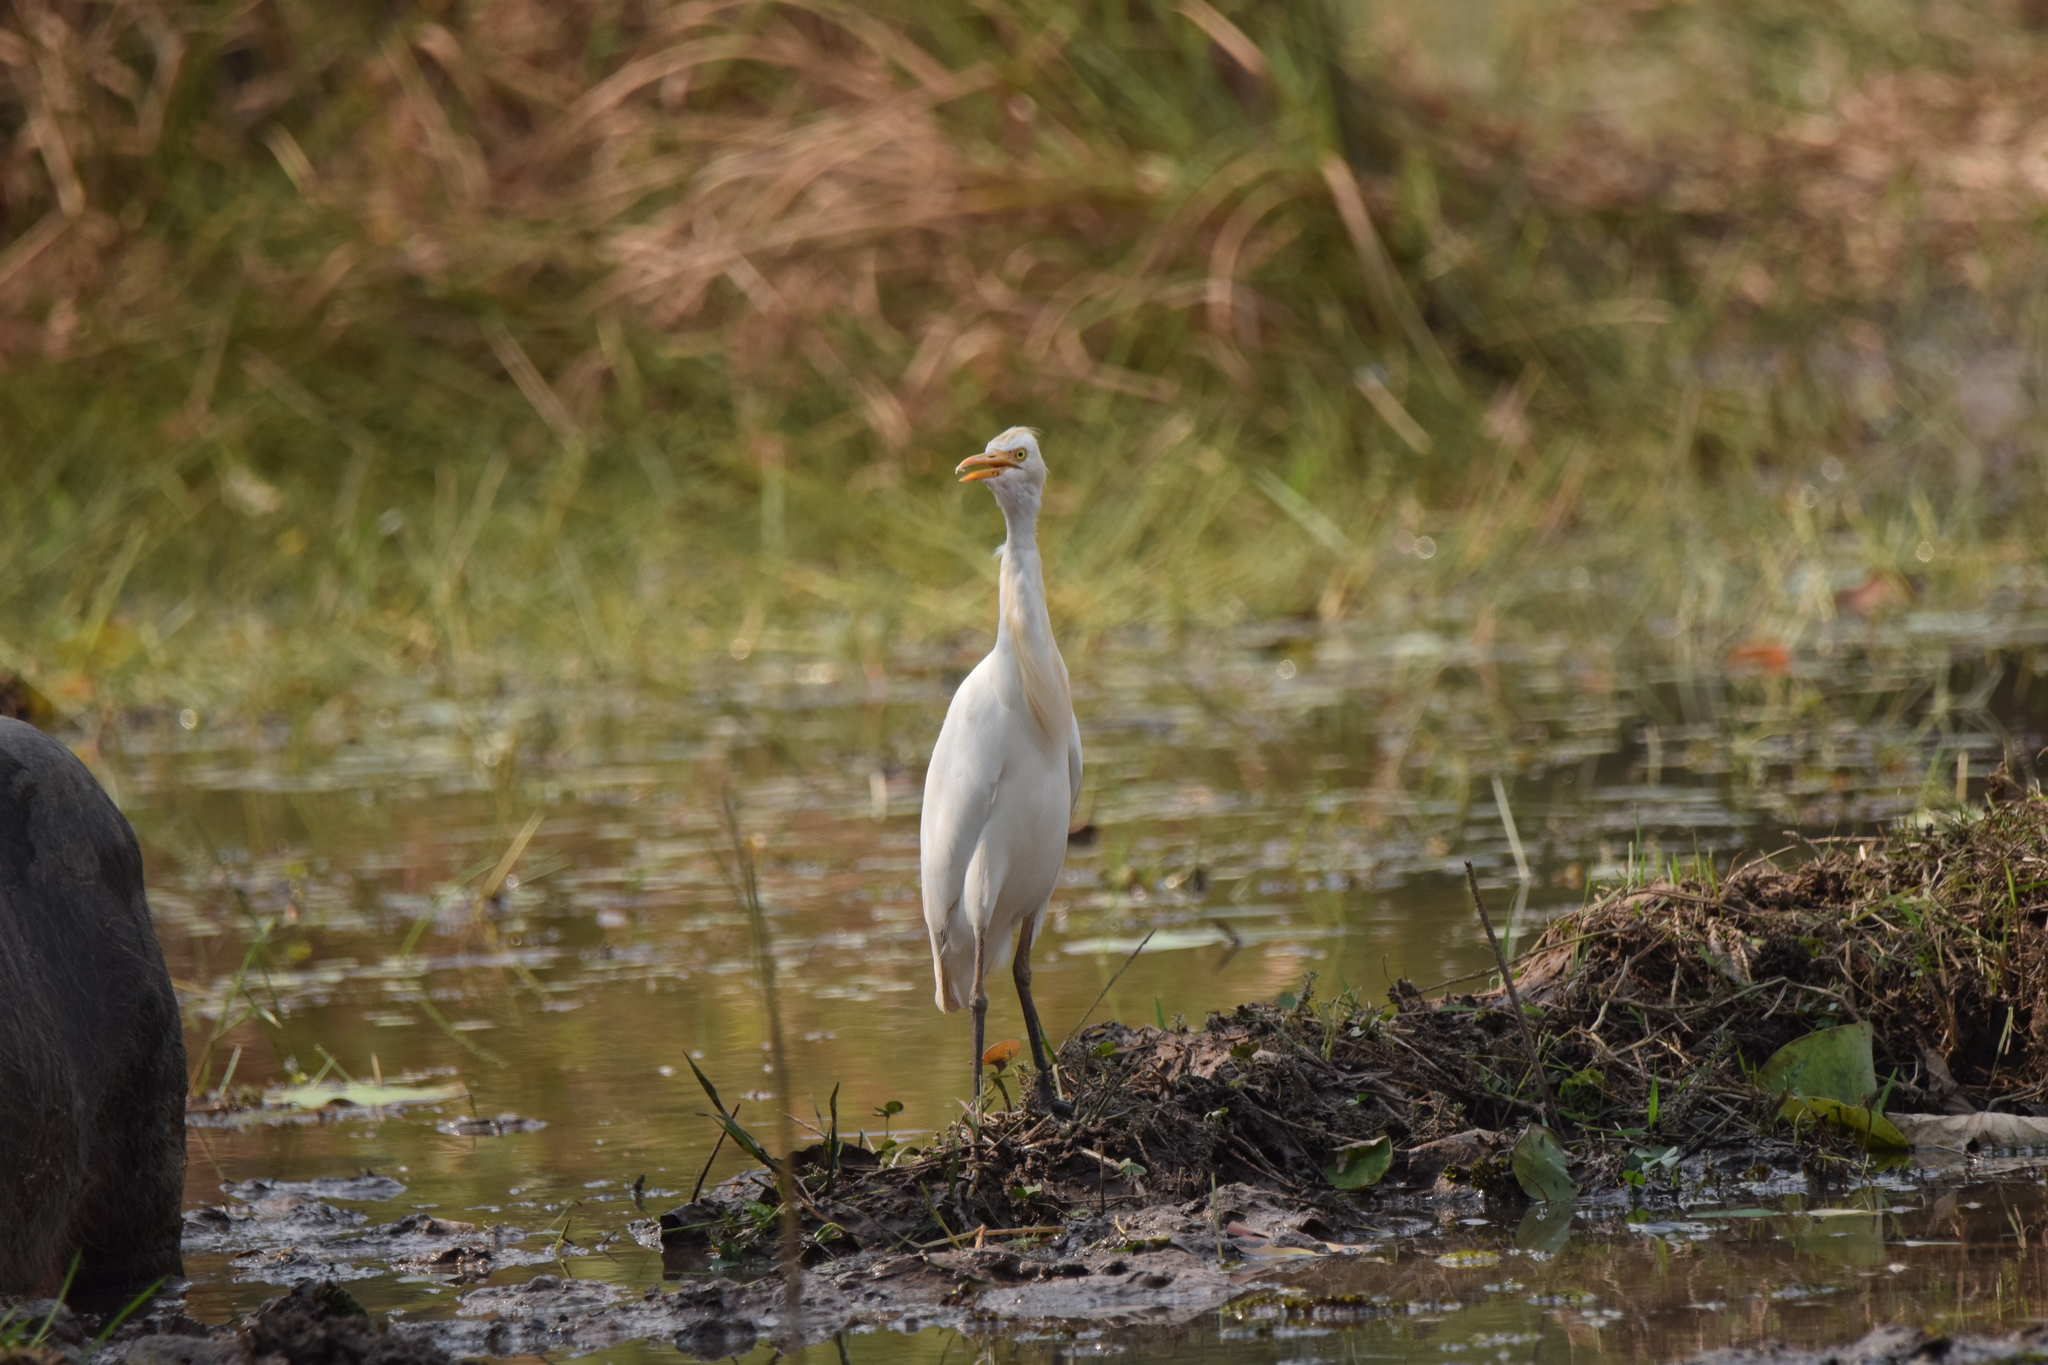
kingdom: Animalia
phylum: Chordata
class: Aves
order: Pelecaniformes
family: Ardeidae
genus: Bubulcus
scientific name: Bubulcus coromandus
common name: Eastern cattle egret
